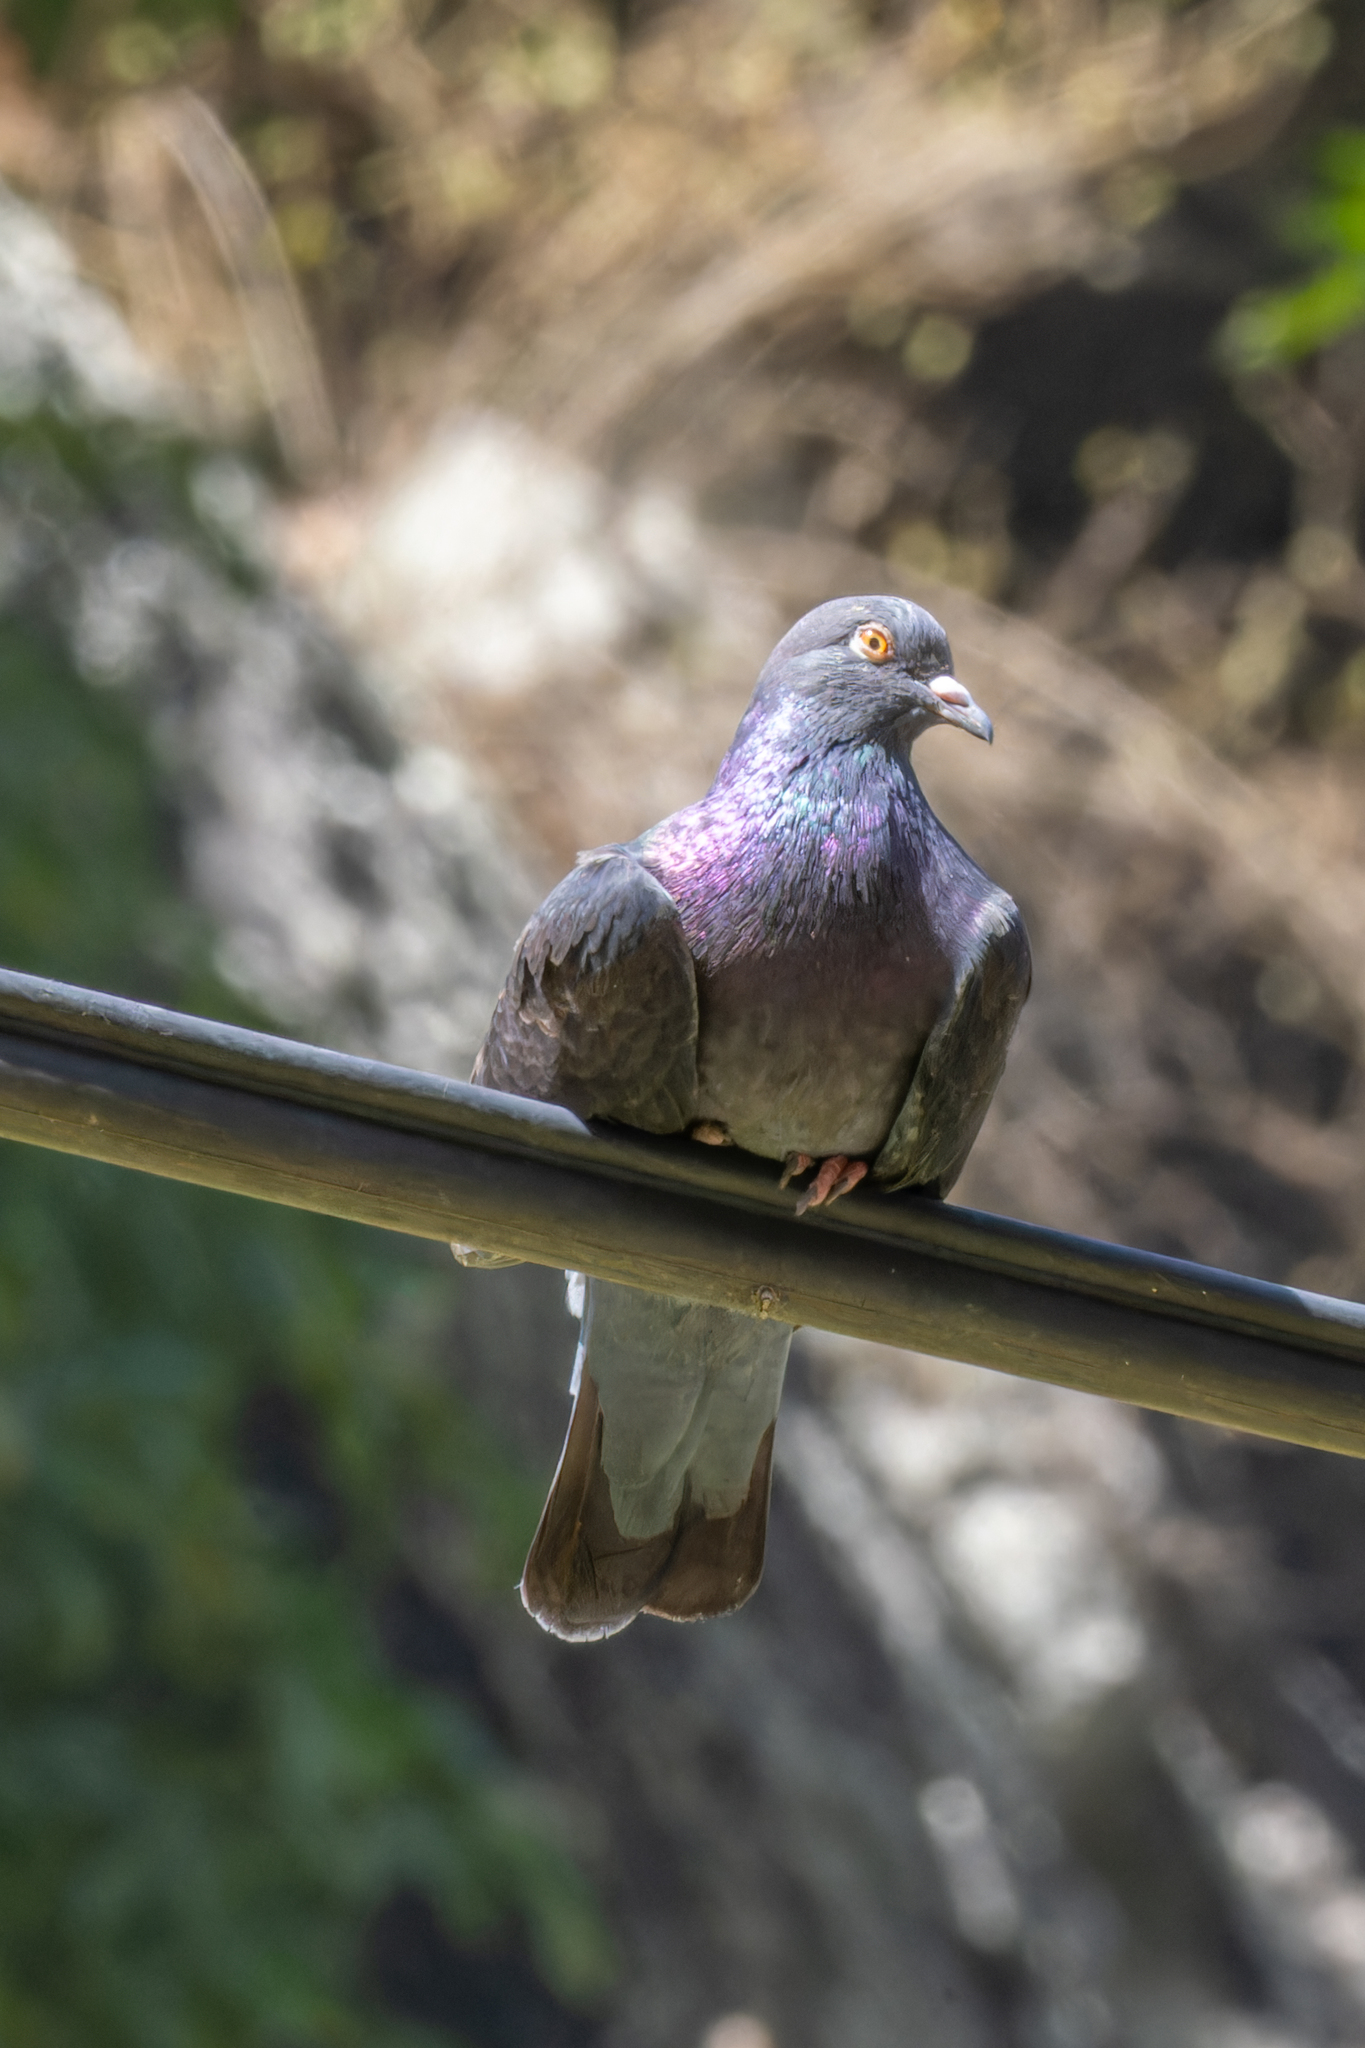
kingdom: Animalia
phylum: Chordata
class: Aves
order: Columbiformes
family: Columbidae
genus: Columba
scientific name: Columba livia
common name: Rock pigeon
